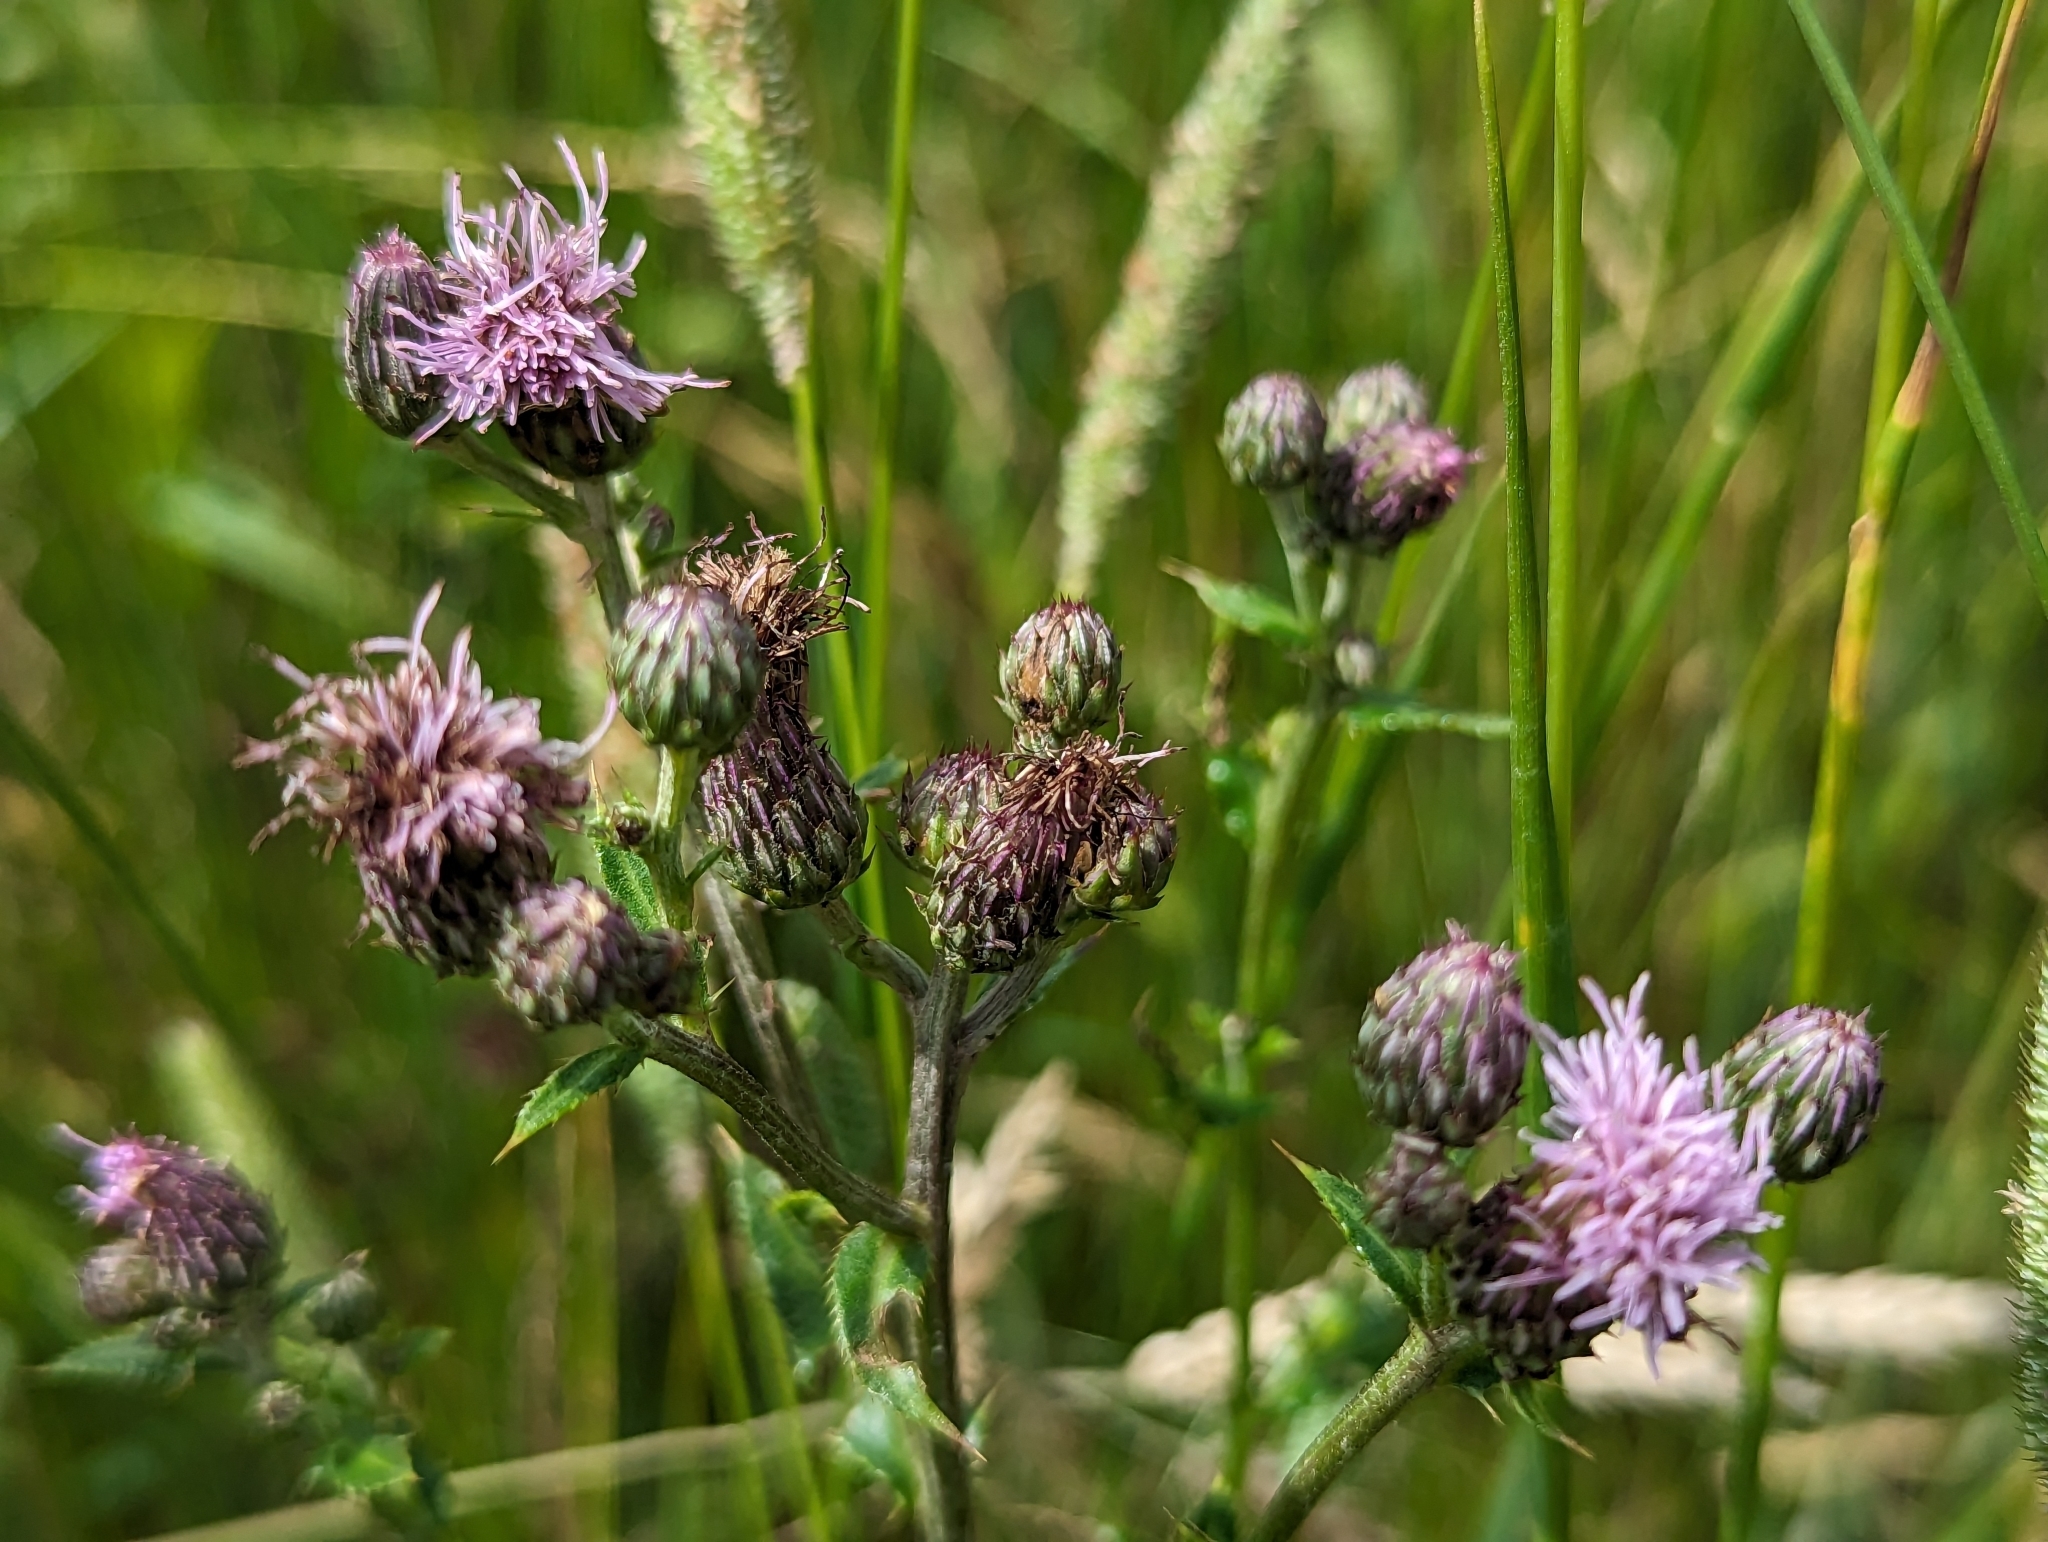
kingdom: Plantae
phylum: Tracheophyta
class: Magnoliopsida
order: Asterales
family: Asteraceae
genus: Cirsium
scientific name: Cirsium arvense
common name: Creeping thistle
